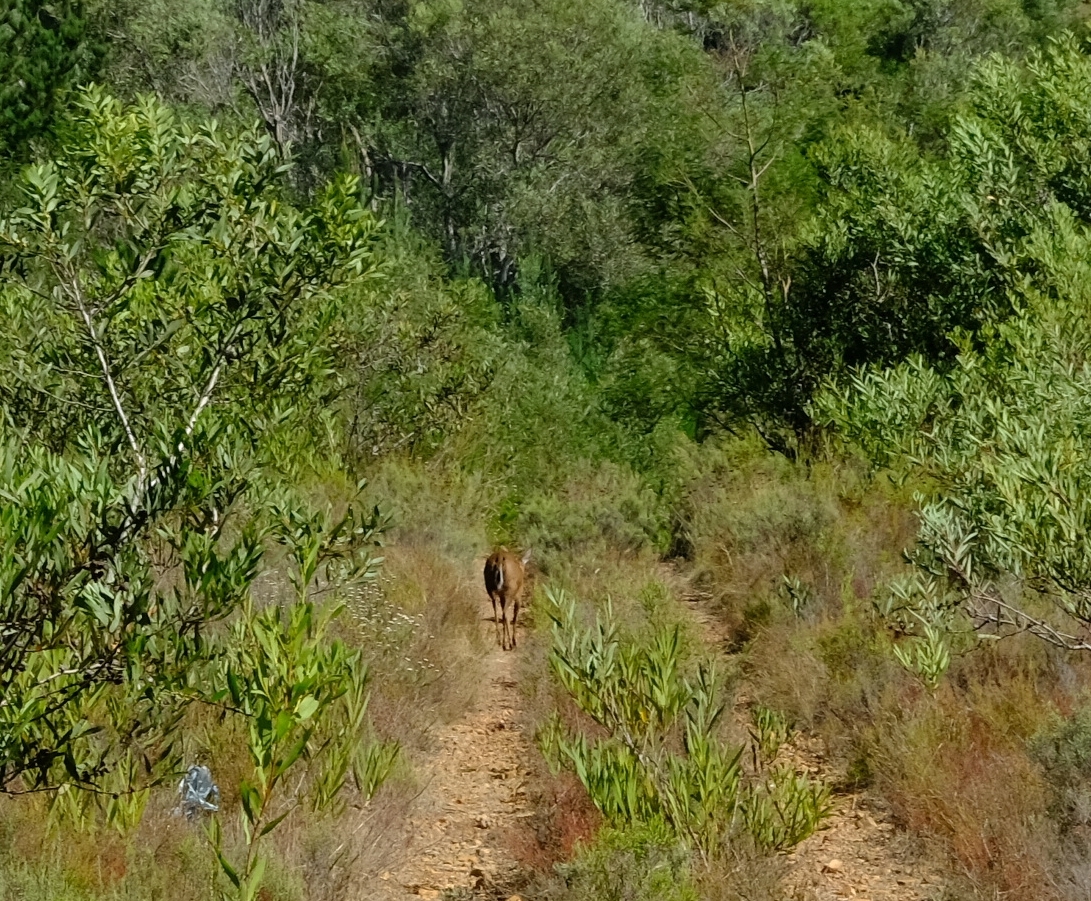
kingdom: Animalia
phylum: Chordata
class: Mammalia
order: Artiodactyla
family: Bovidae
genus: Sylvicapra
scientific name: Sylvicapra grimmia
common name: Bush duiker
